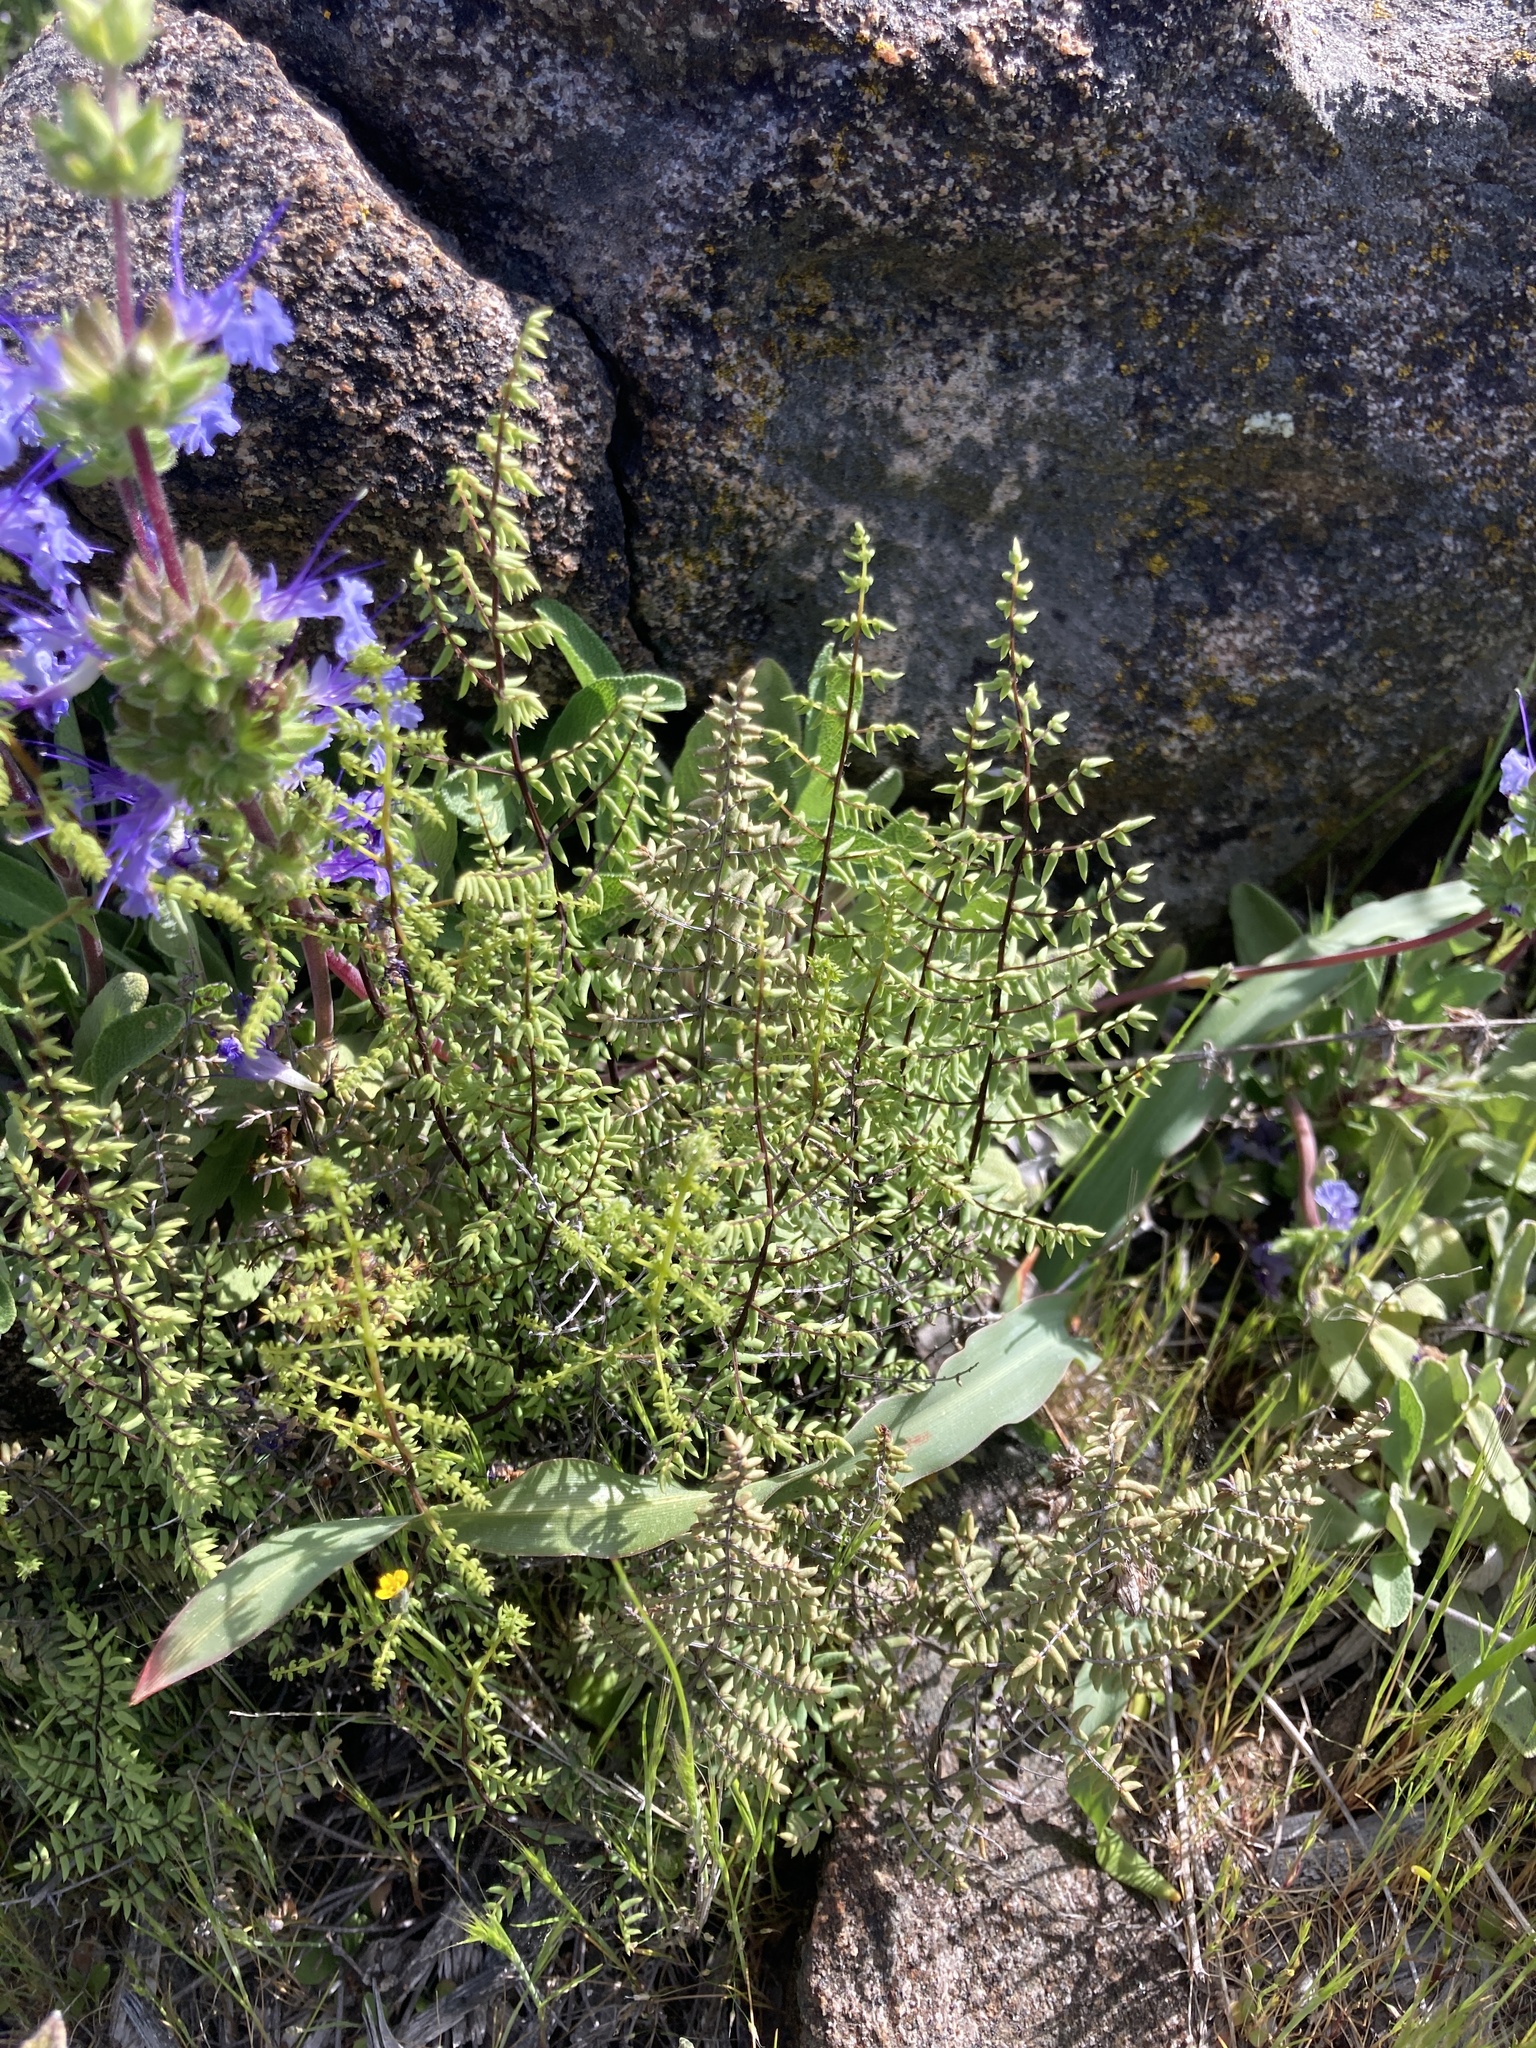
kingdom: Plantae
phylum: Tracheophyta
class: Polypodiopsida
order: Polypodiales
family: Pteridaceae
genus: Pellaea
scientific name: Pellaea mucronata
